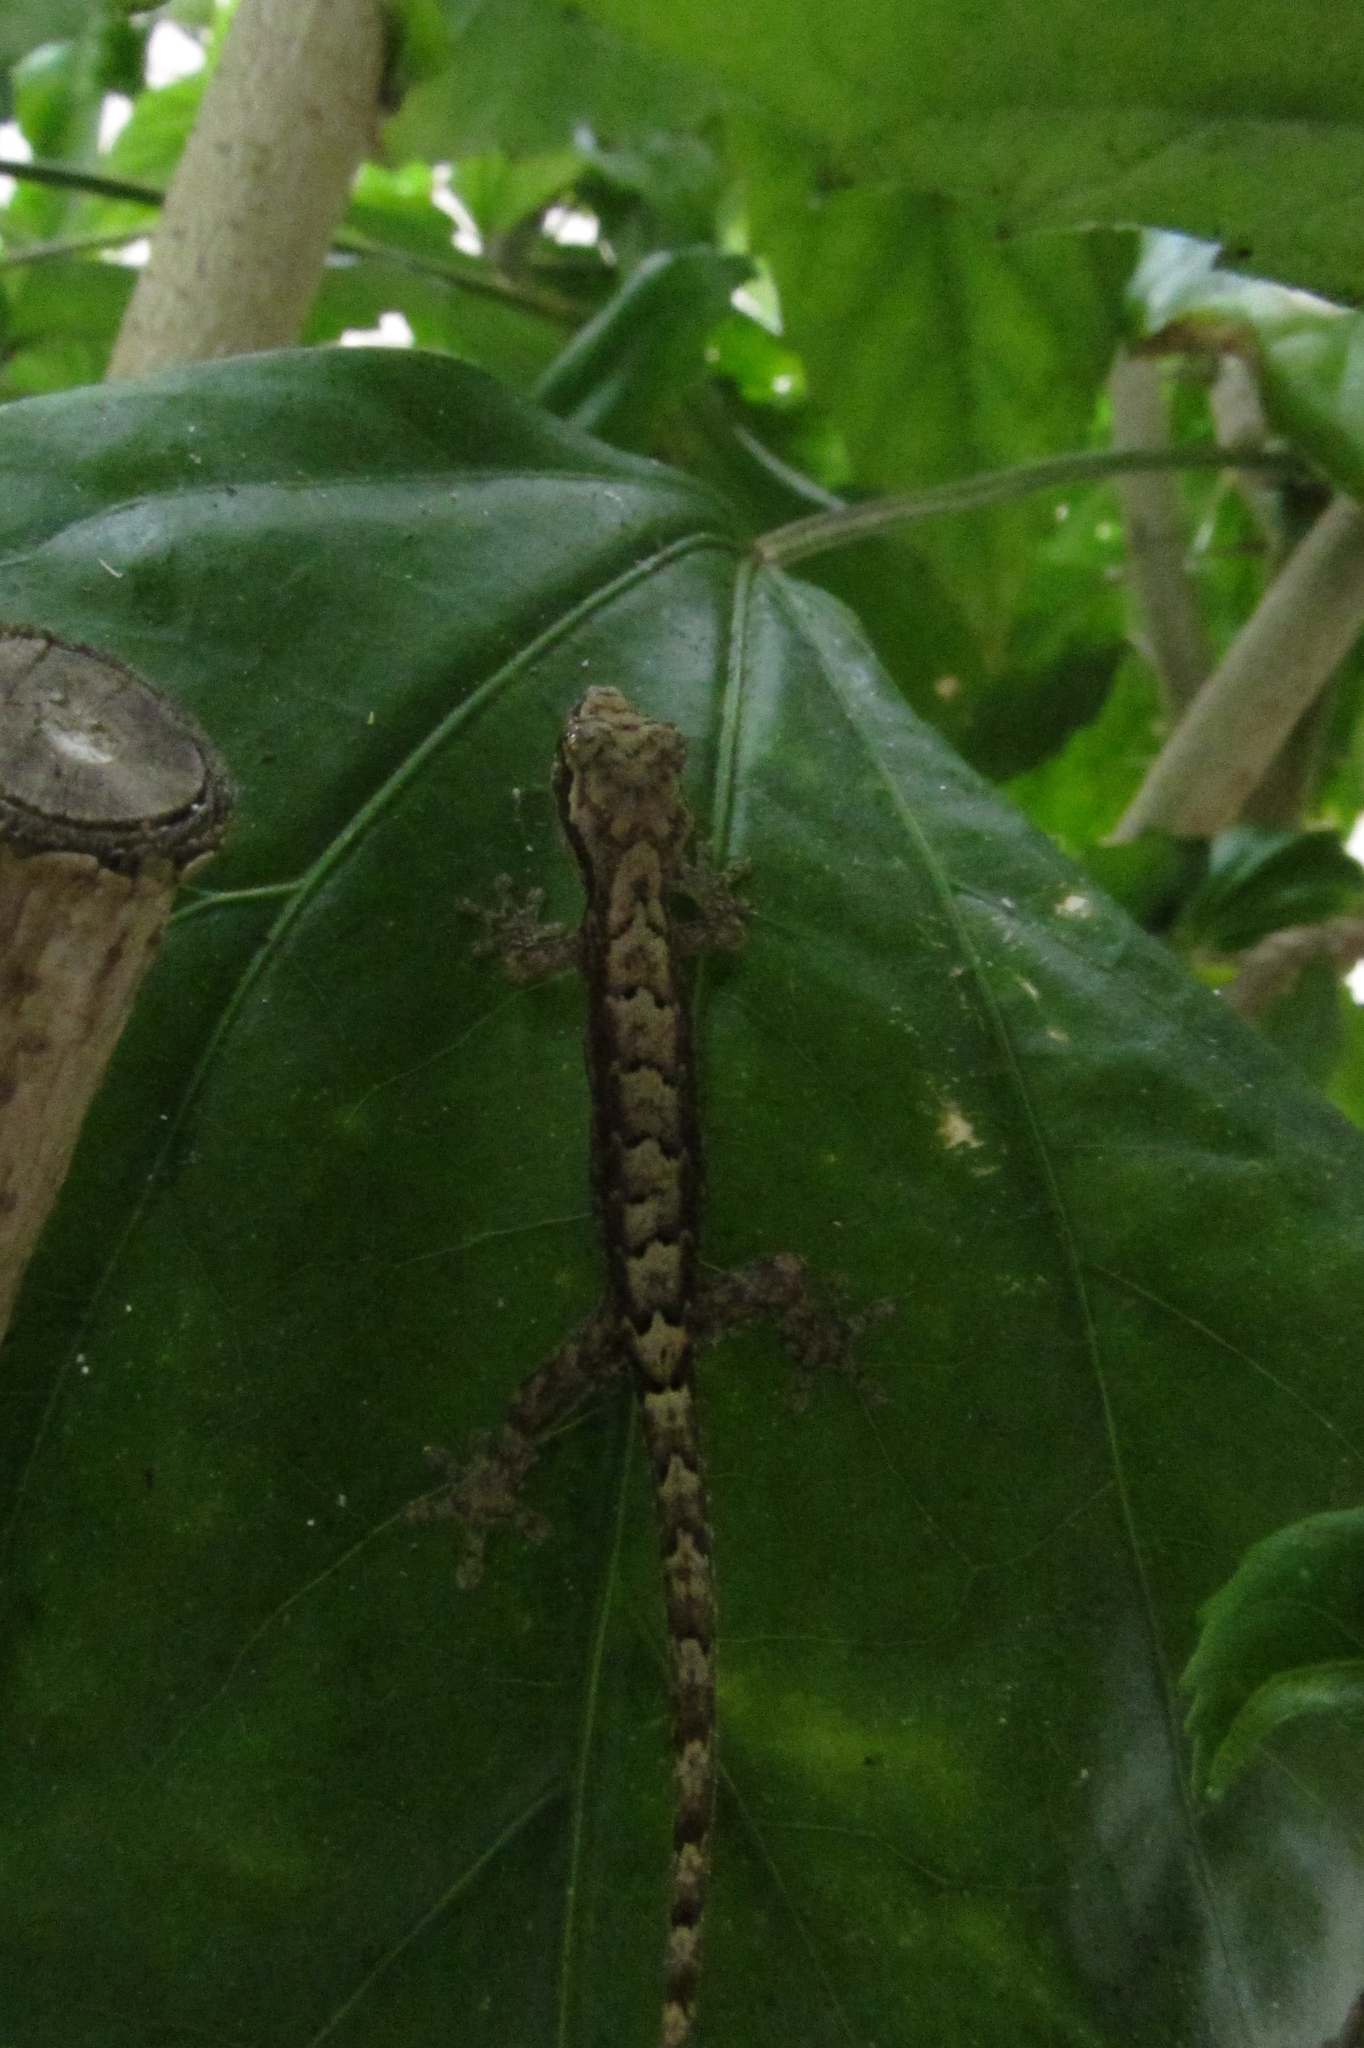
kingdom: Animalia
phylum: Chordata
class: Squamata
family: Gekkonidae
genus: Lepidodactylus
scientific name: Lepidodactylus lugubris
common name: Mourning gecko
